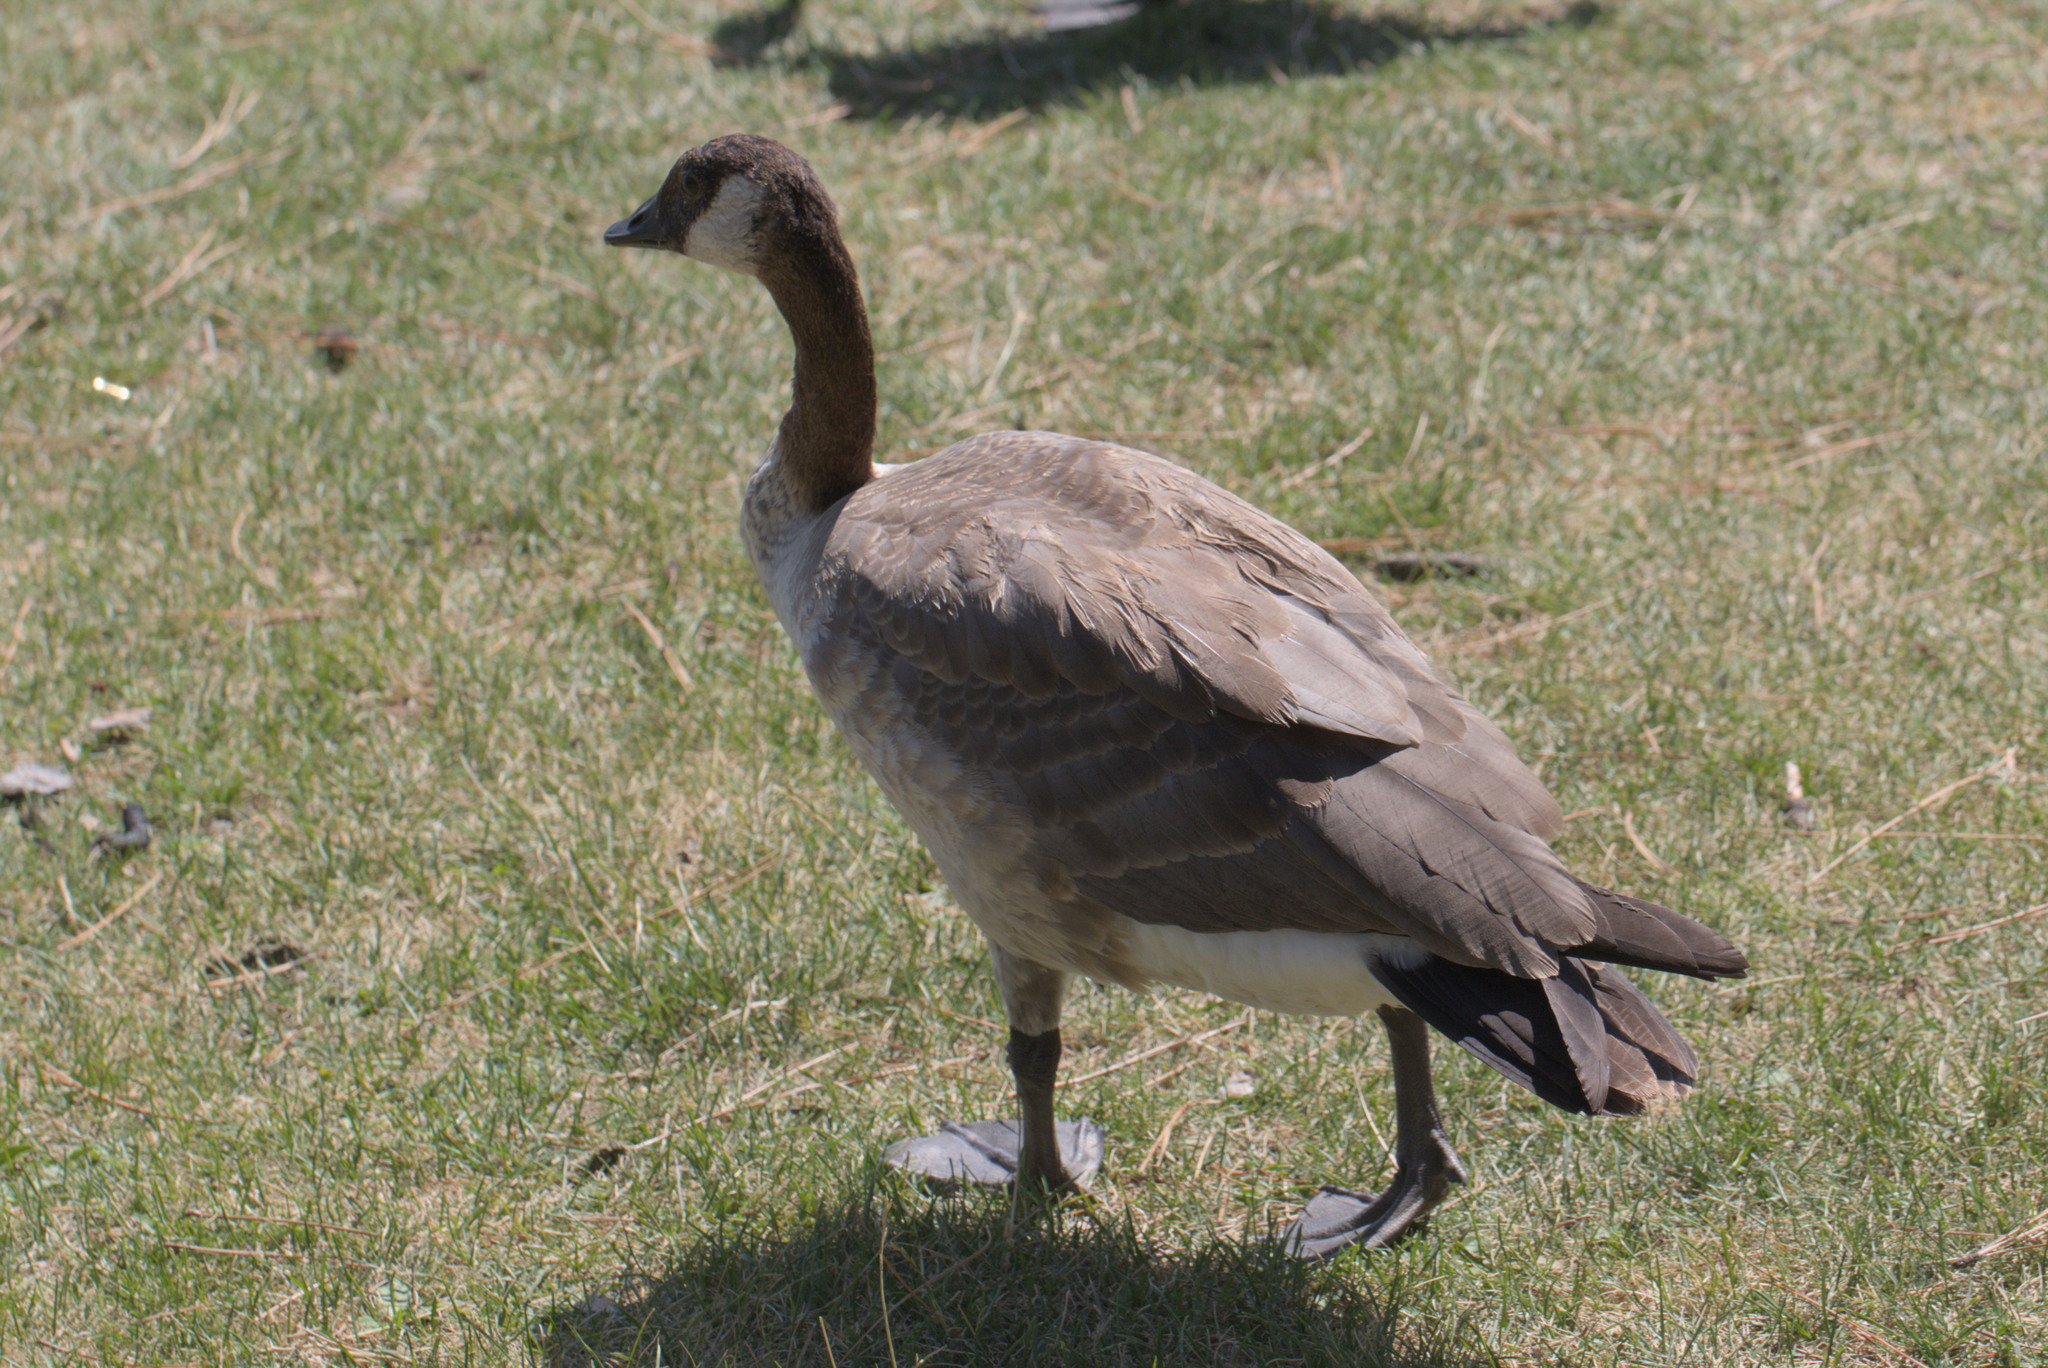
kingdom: Animalia
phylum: Chordata
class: Aves
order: Anseriformes
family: Anatidae
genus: Branta
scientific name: Branta canadensis
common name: Canada goose
